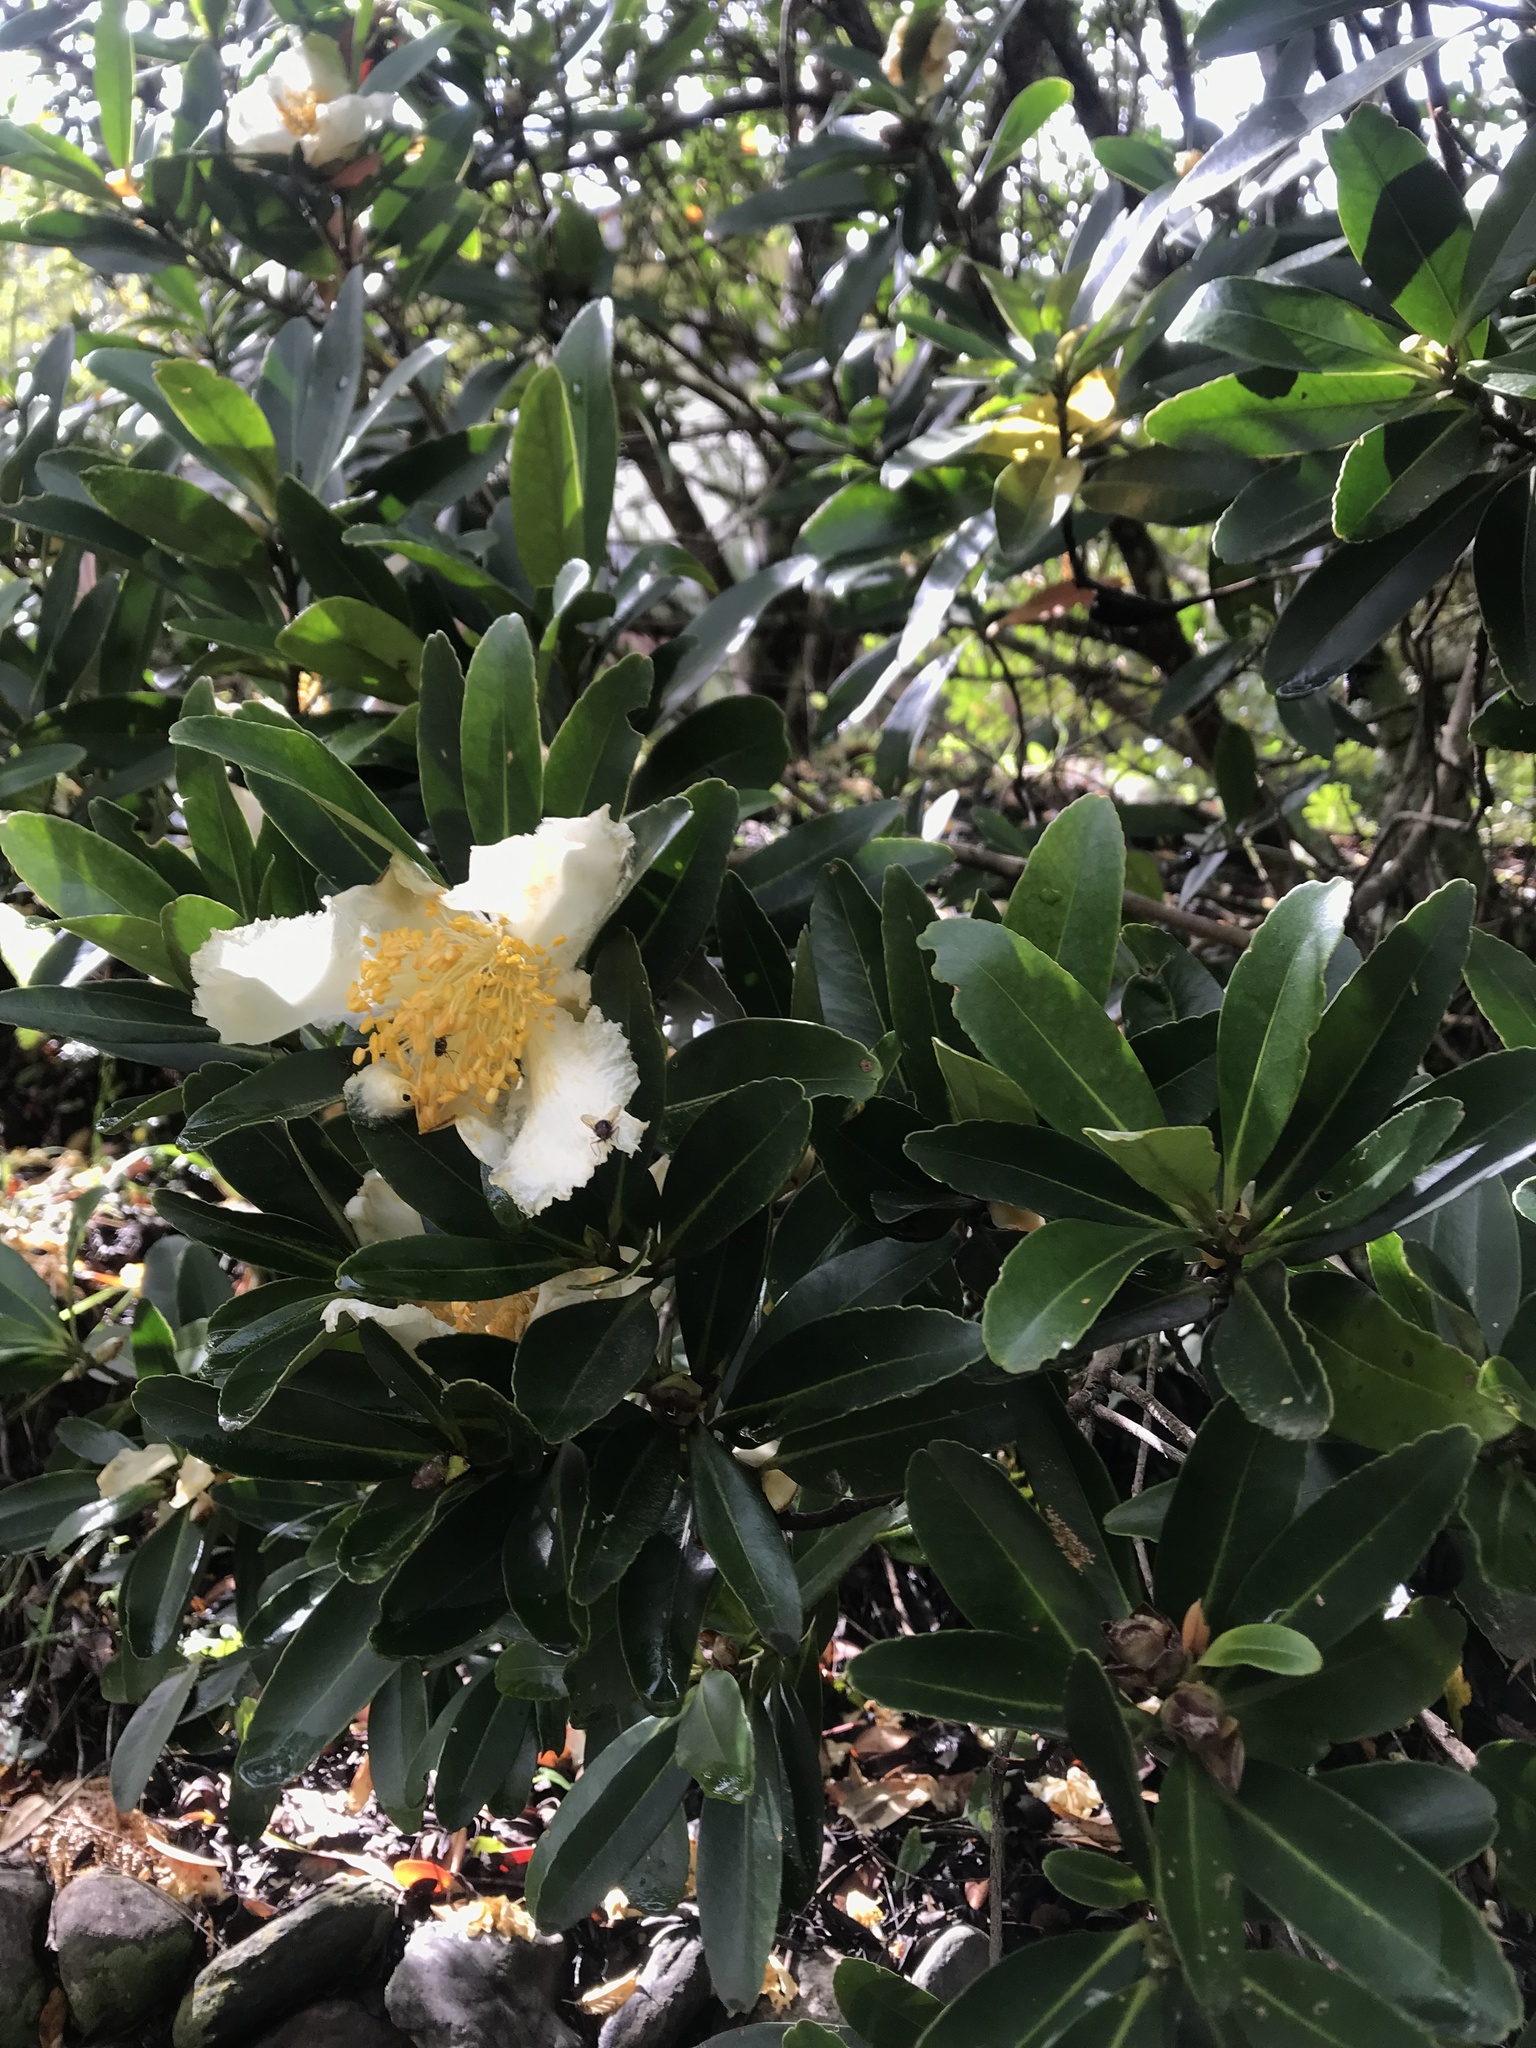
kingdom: Plantae
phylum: Tracheophyta
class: Magnoliopsida
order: Ericales
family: Theaceae
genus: Polyspora
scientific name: Polyspora axillaris
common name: Fried egg tree
